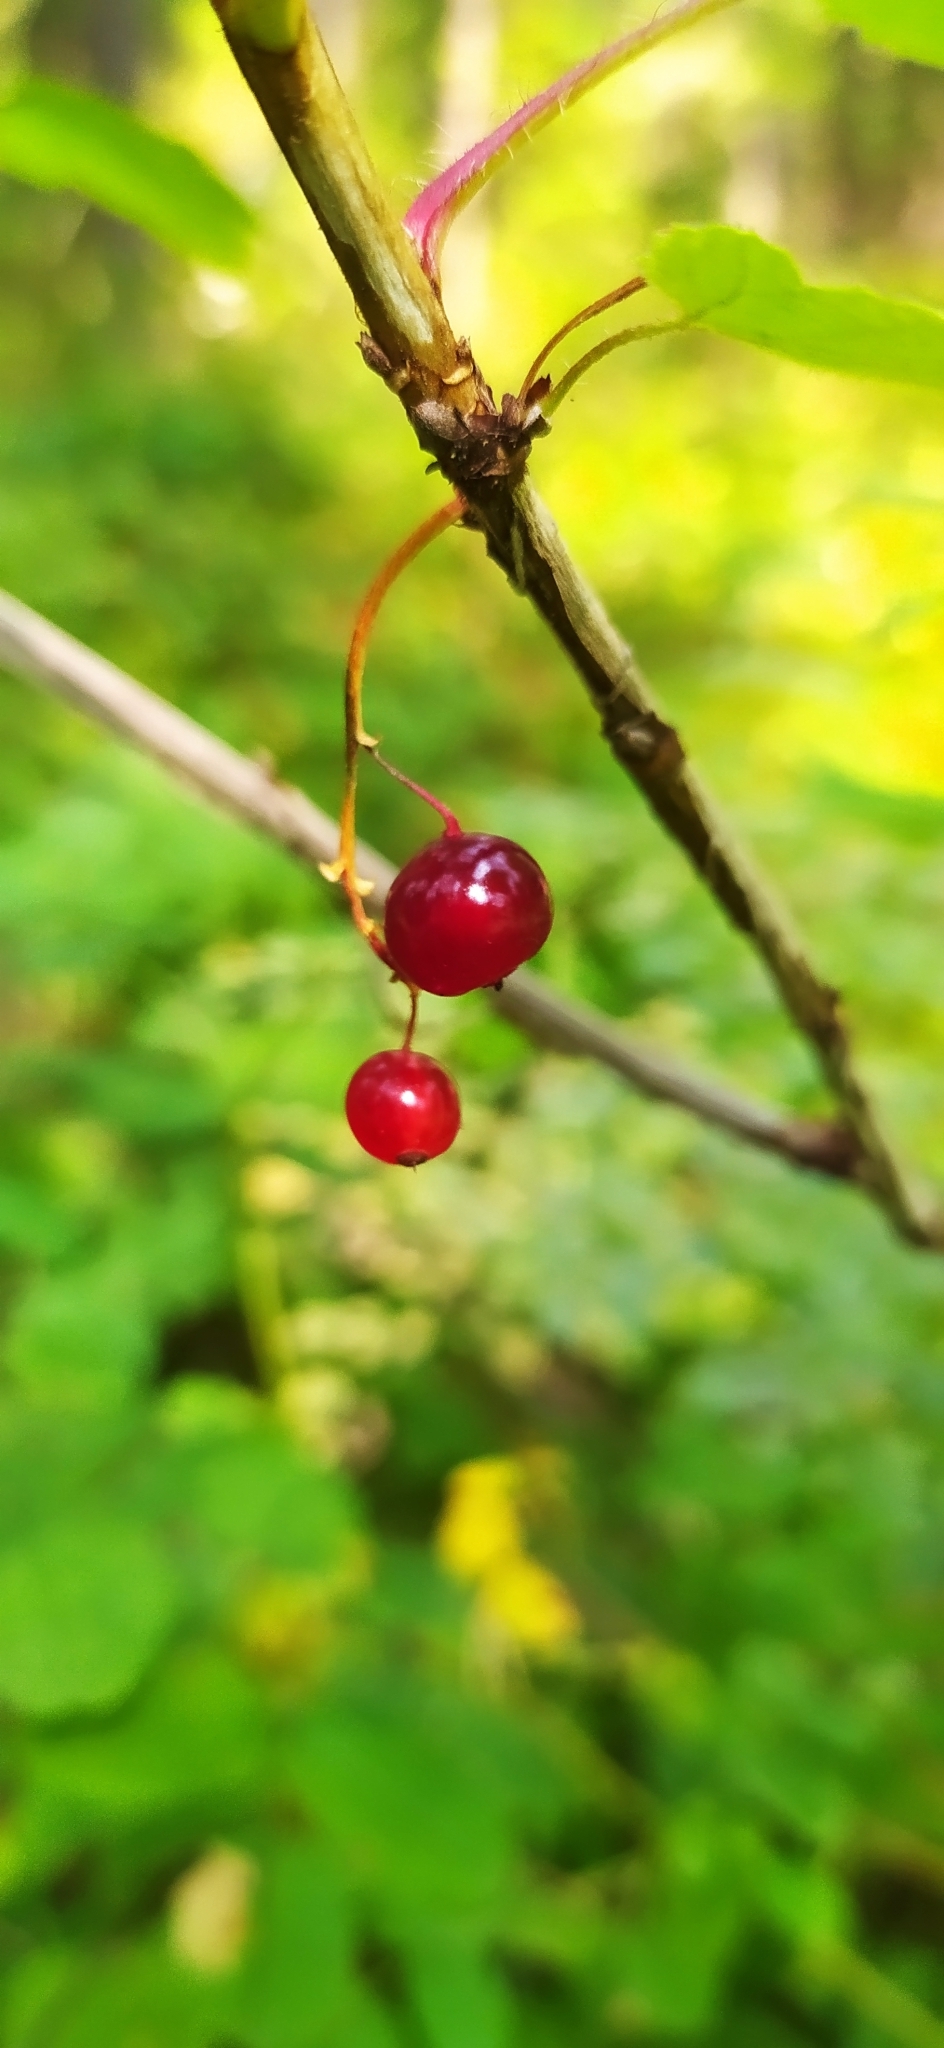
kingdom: Plantae
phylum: Tracheophyta
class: Magnoliopsida
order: Saxifragales
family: Grossulariaceae
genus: Ribes
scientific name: Ribes spicatum
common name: Downy currant
